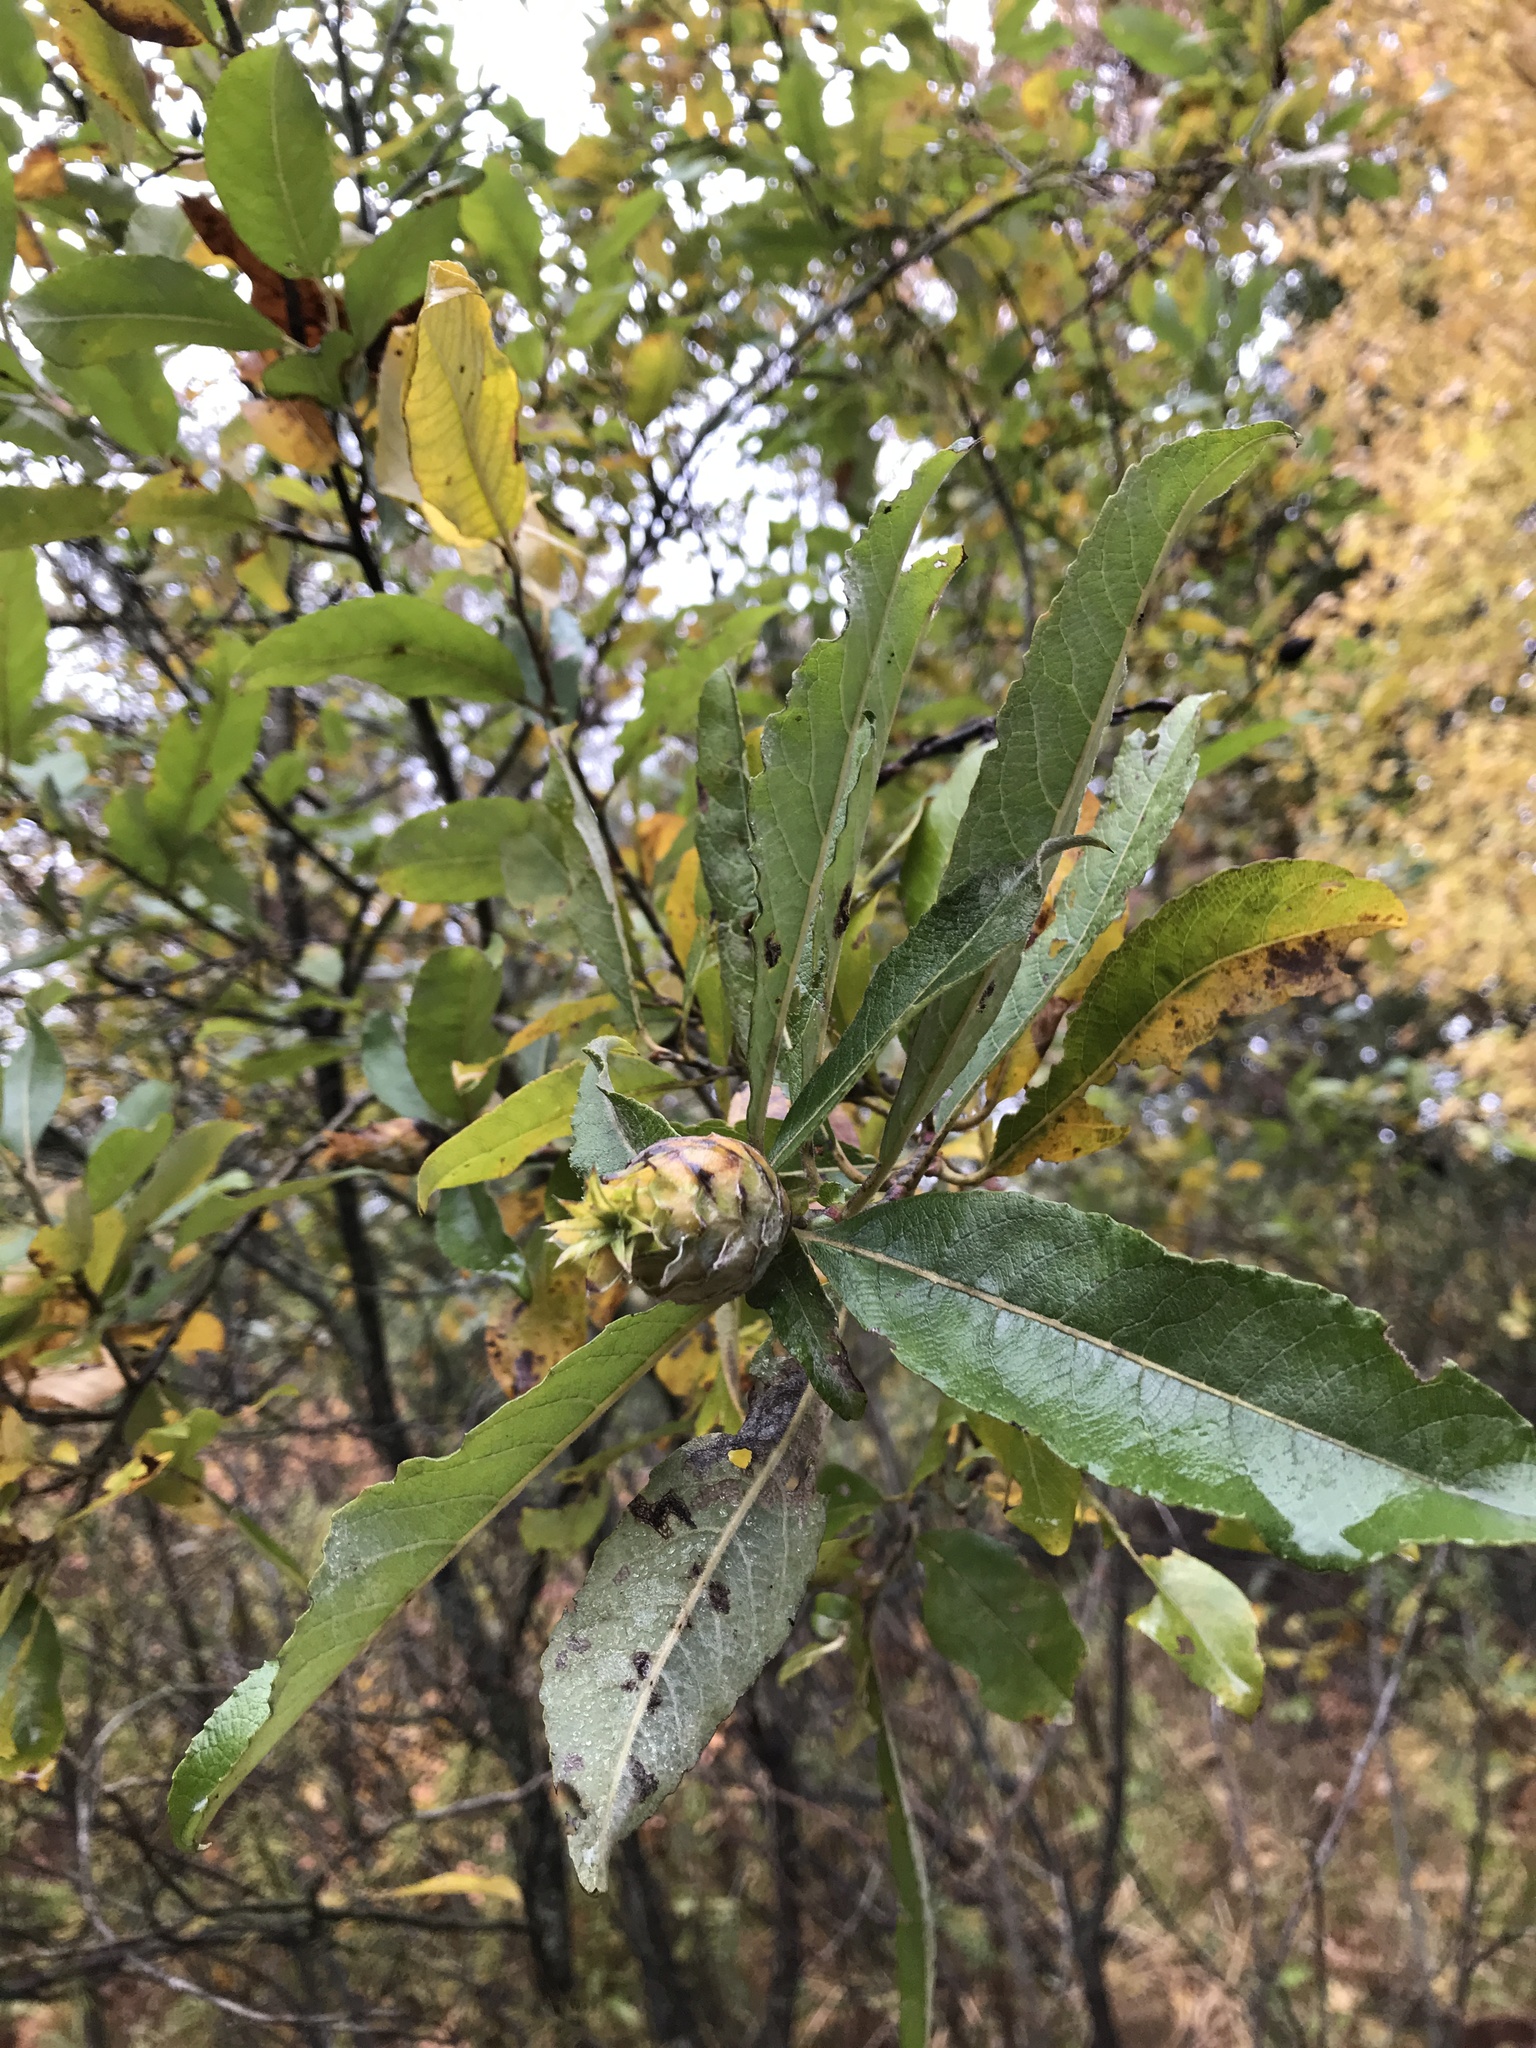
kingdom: Plantae
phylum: Tracheophyta
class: Magnoliopsida
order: Malpighiales
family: Salicaceae
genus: Salix
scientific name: Salix eriocephala
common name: Heart-leaved willow
